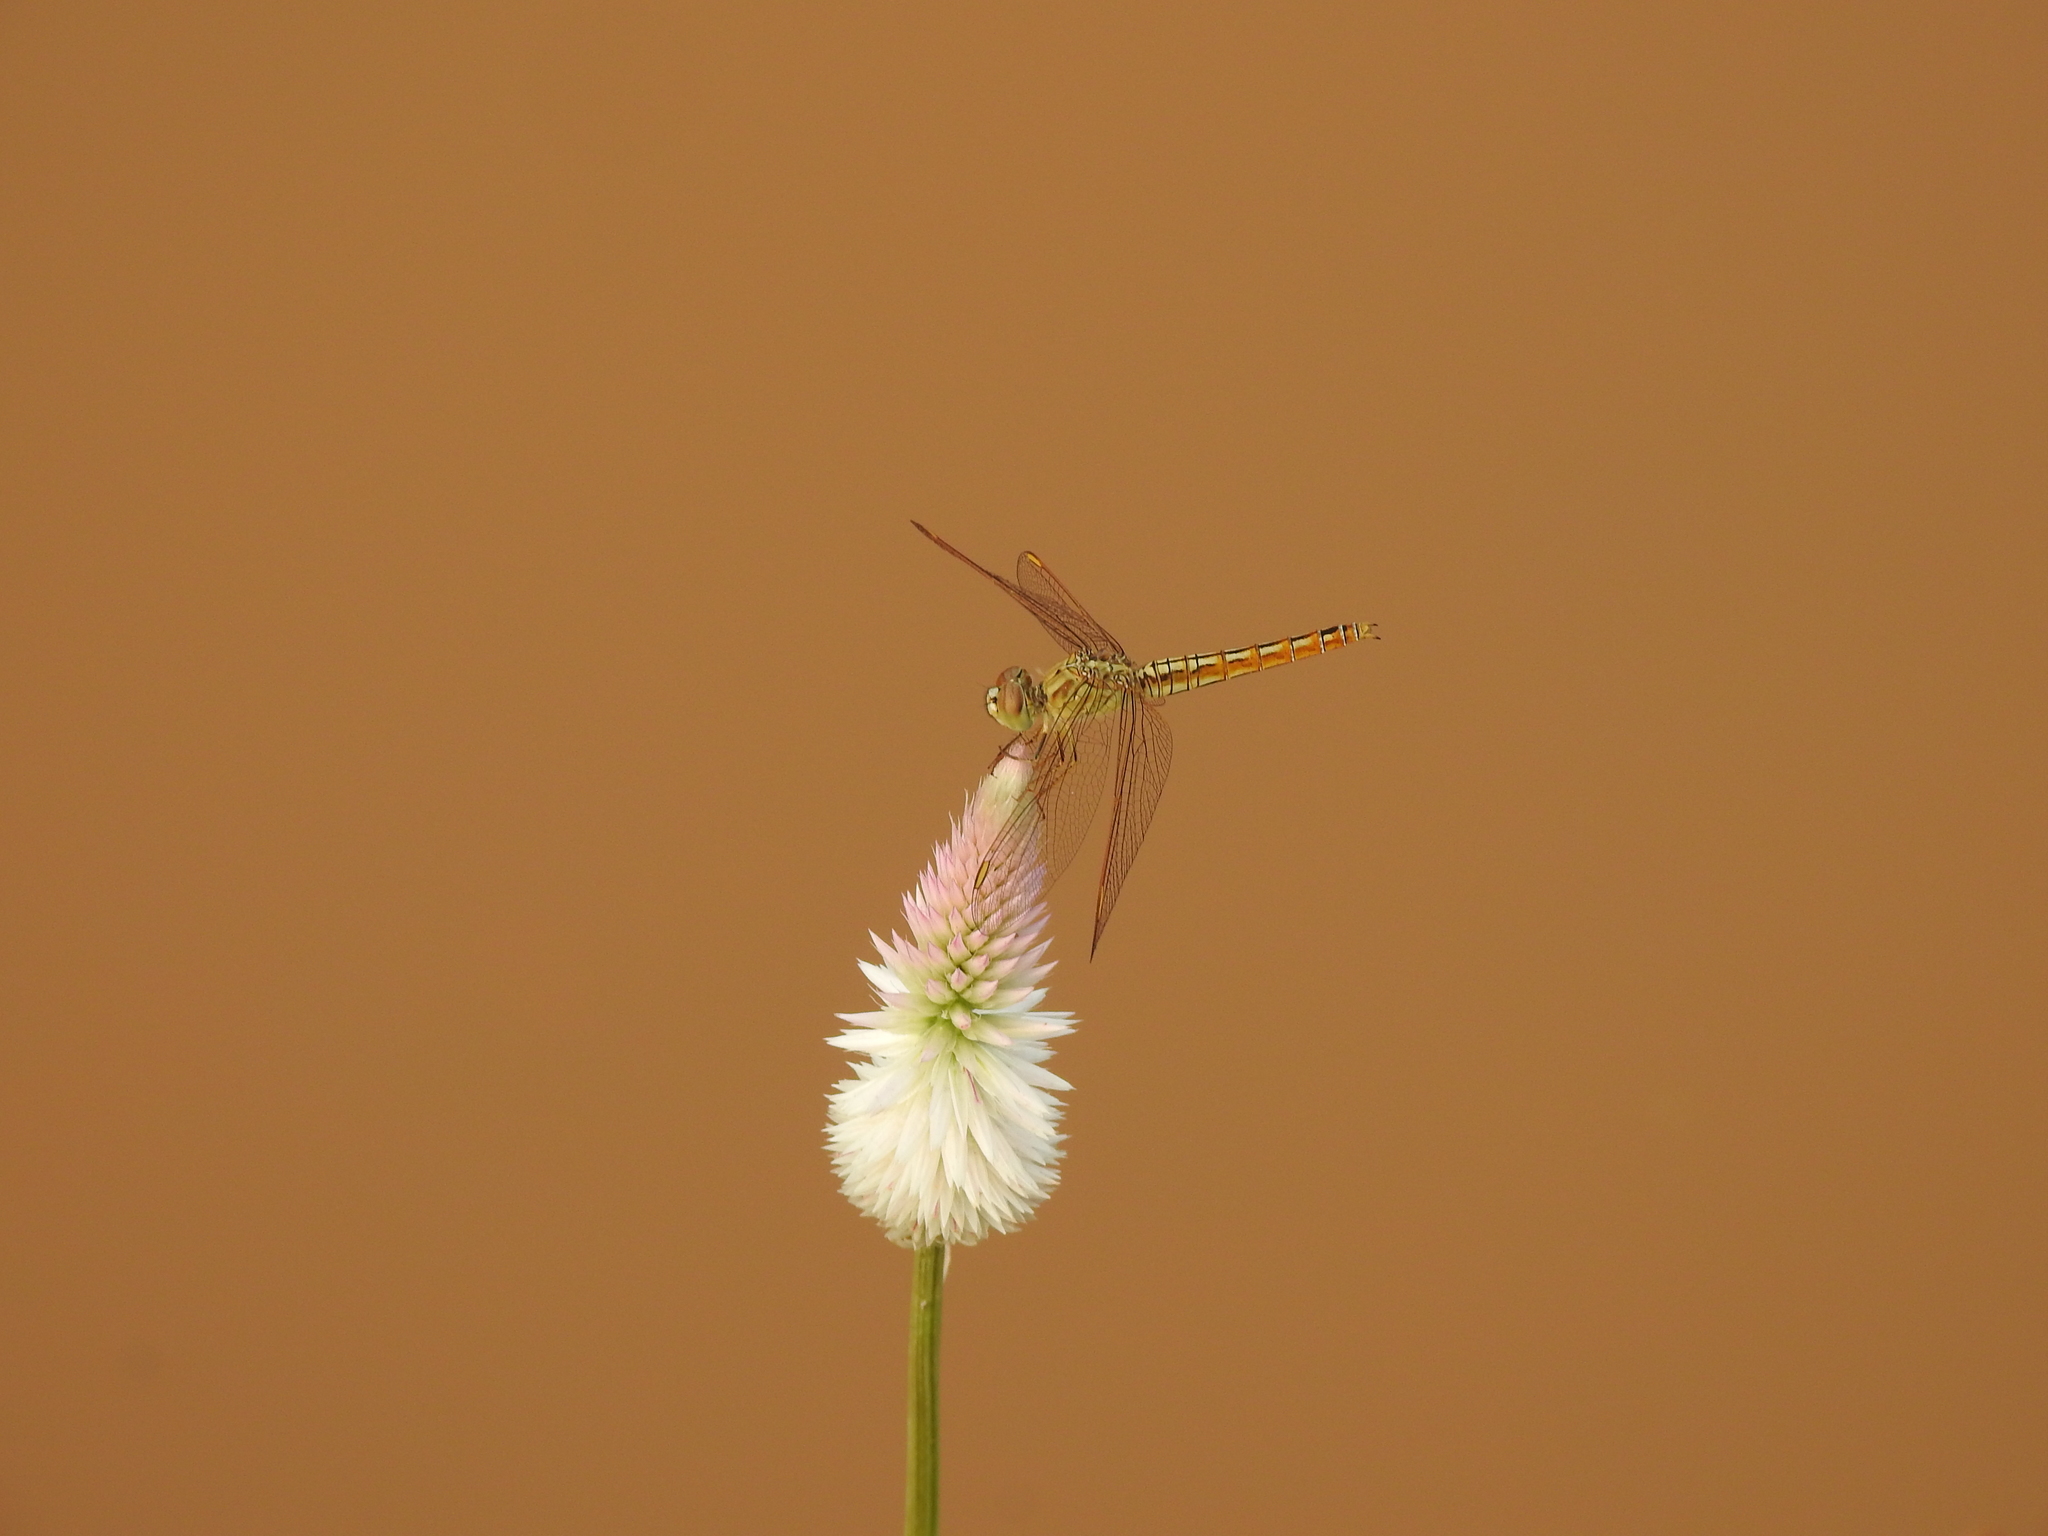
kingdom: Animalia
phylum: Arthropoda
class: Insecta
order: Odonata
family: Libellulidae
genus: Brachythemis
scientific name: Brachythemis contaminata
